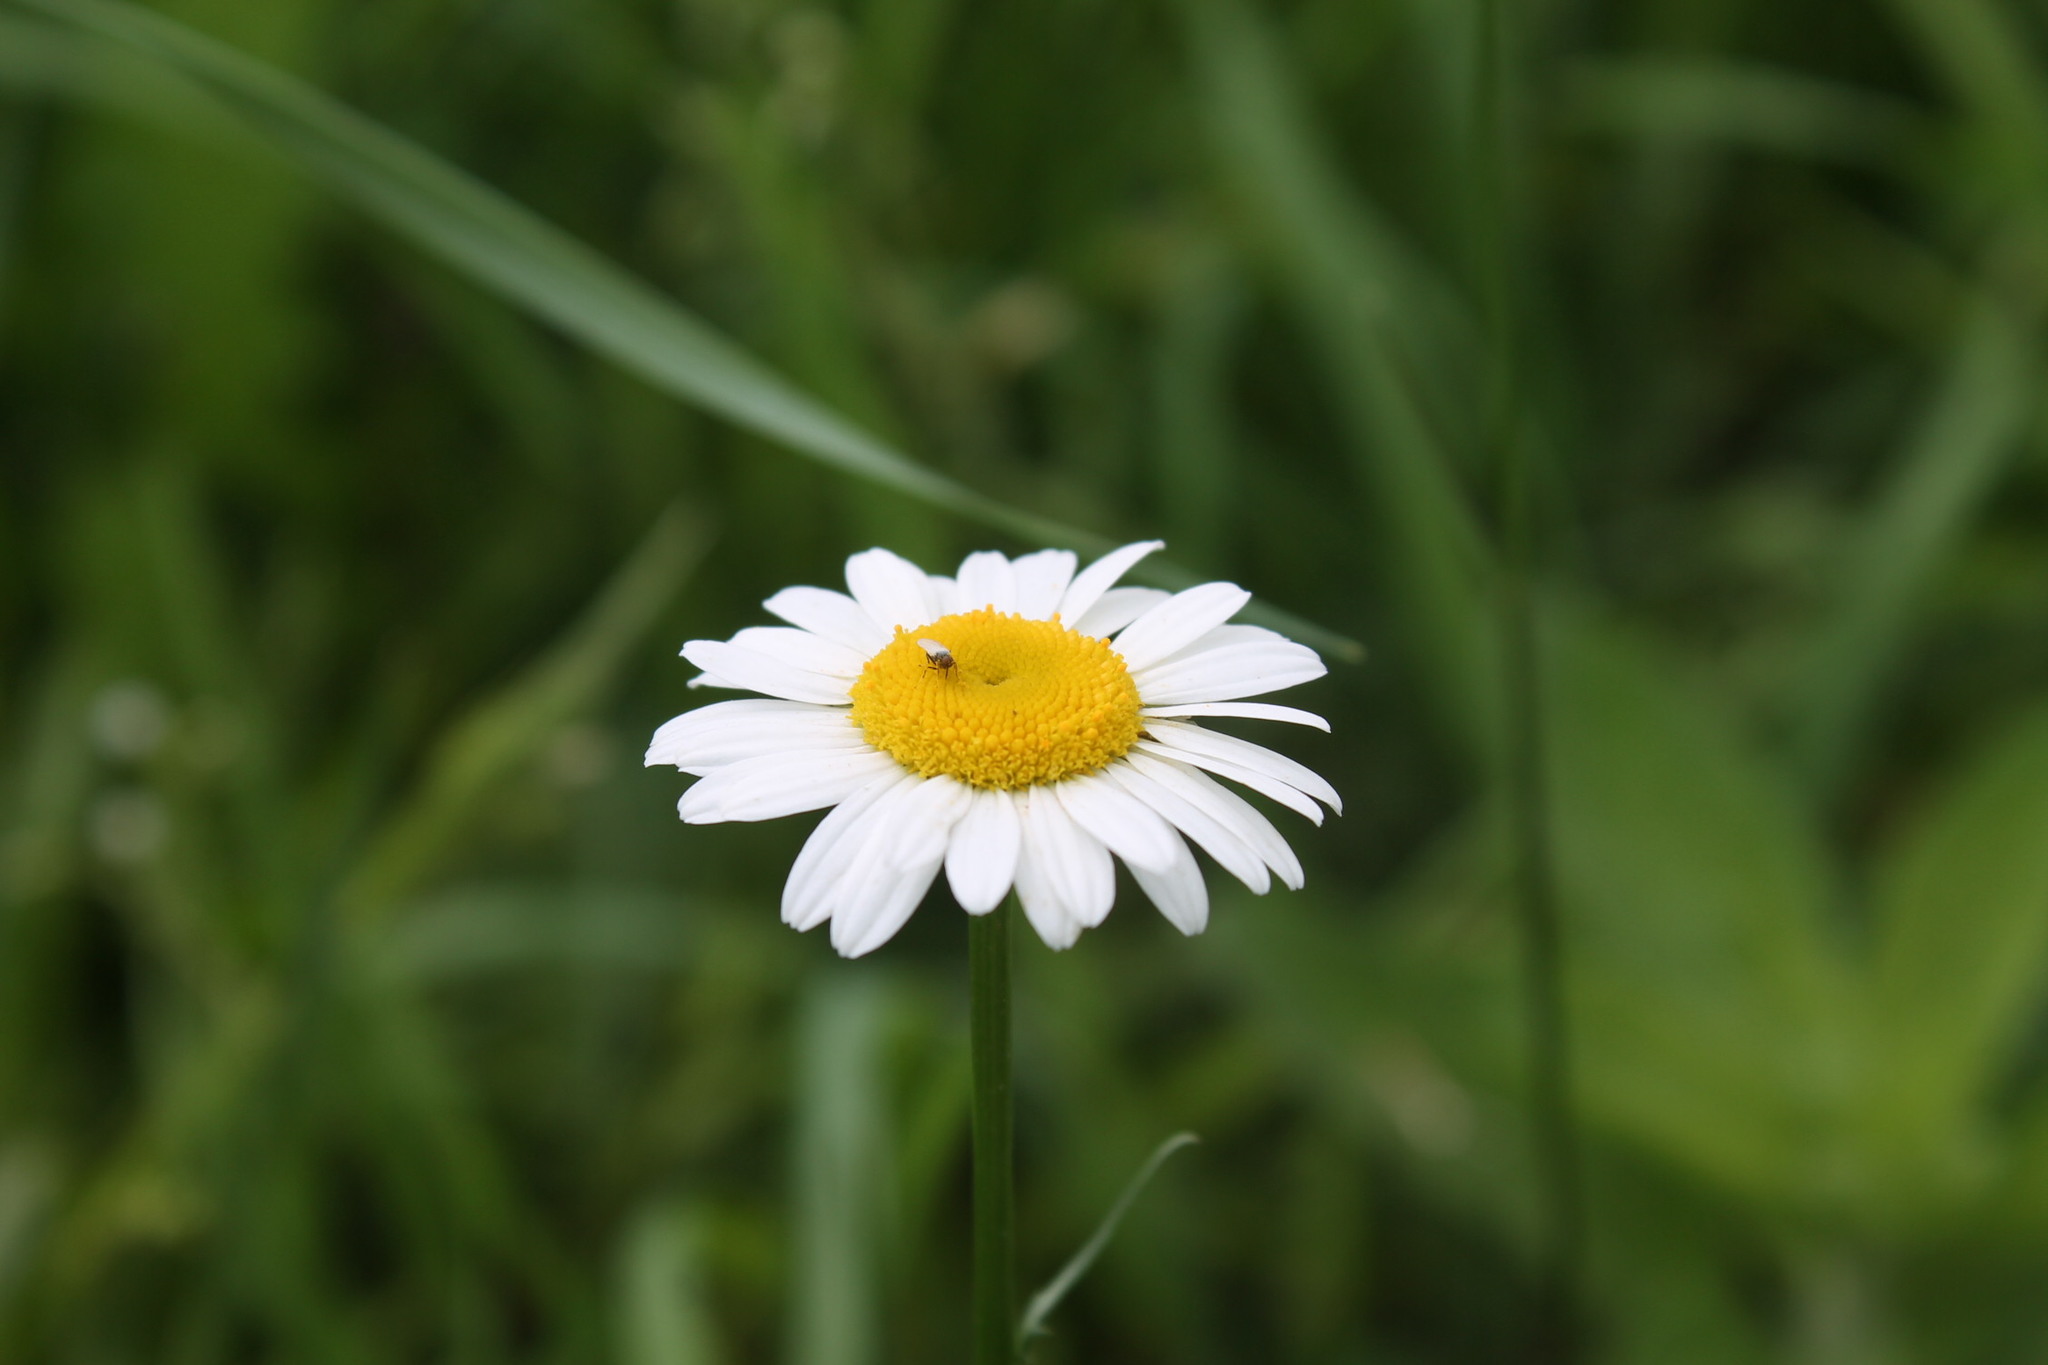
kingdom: Plantae
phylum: Tracheophyta
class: Magnoliopsida
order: Asterales
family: Asteraceae
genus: Leucanthemum
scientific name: Leucanthemum vulgare
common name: Oxeye daisy
